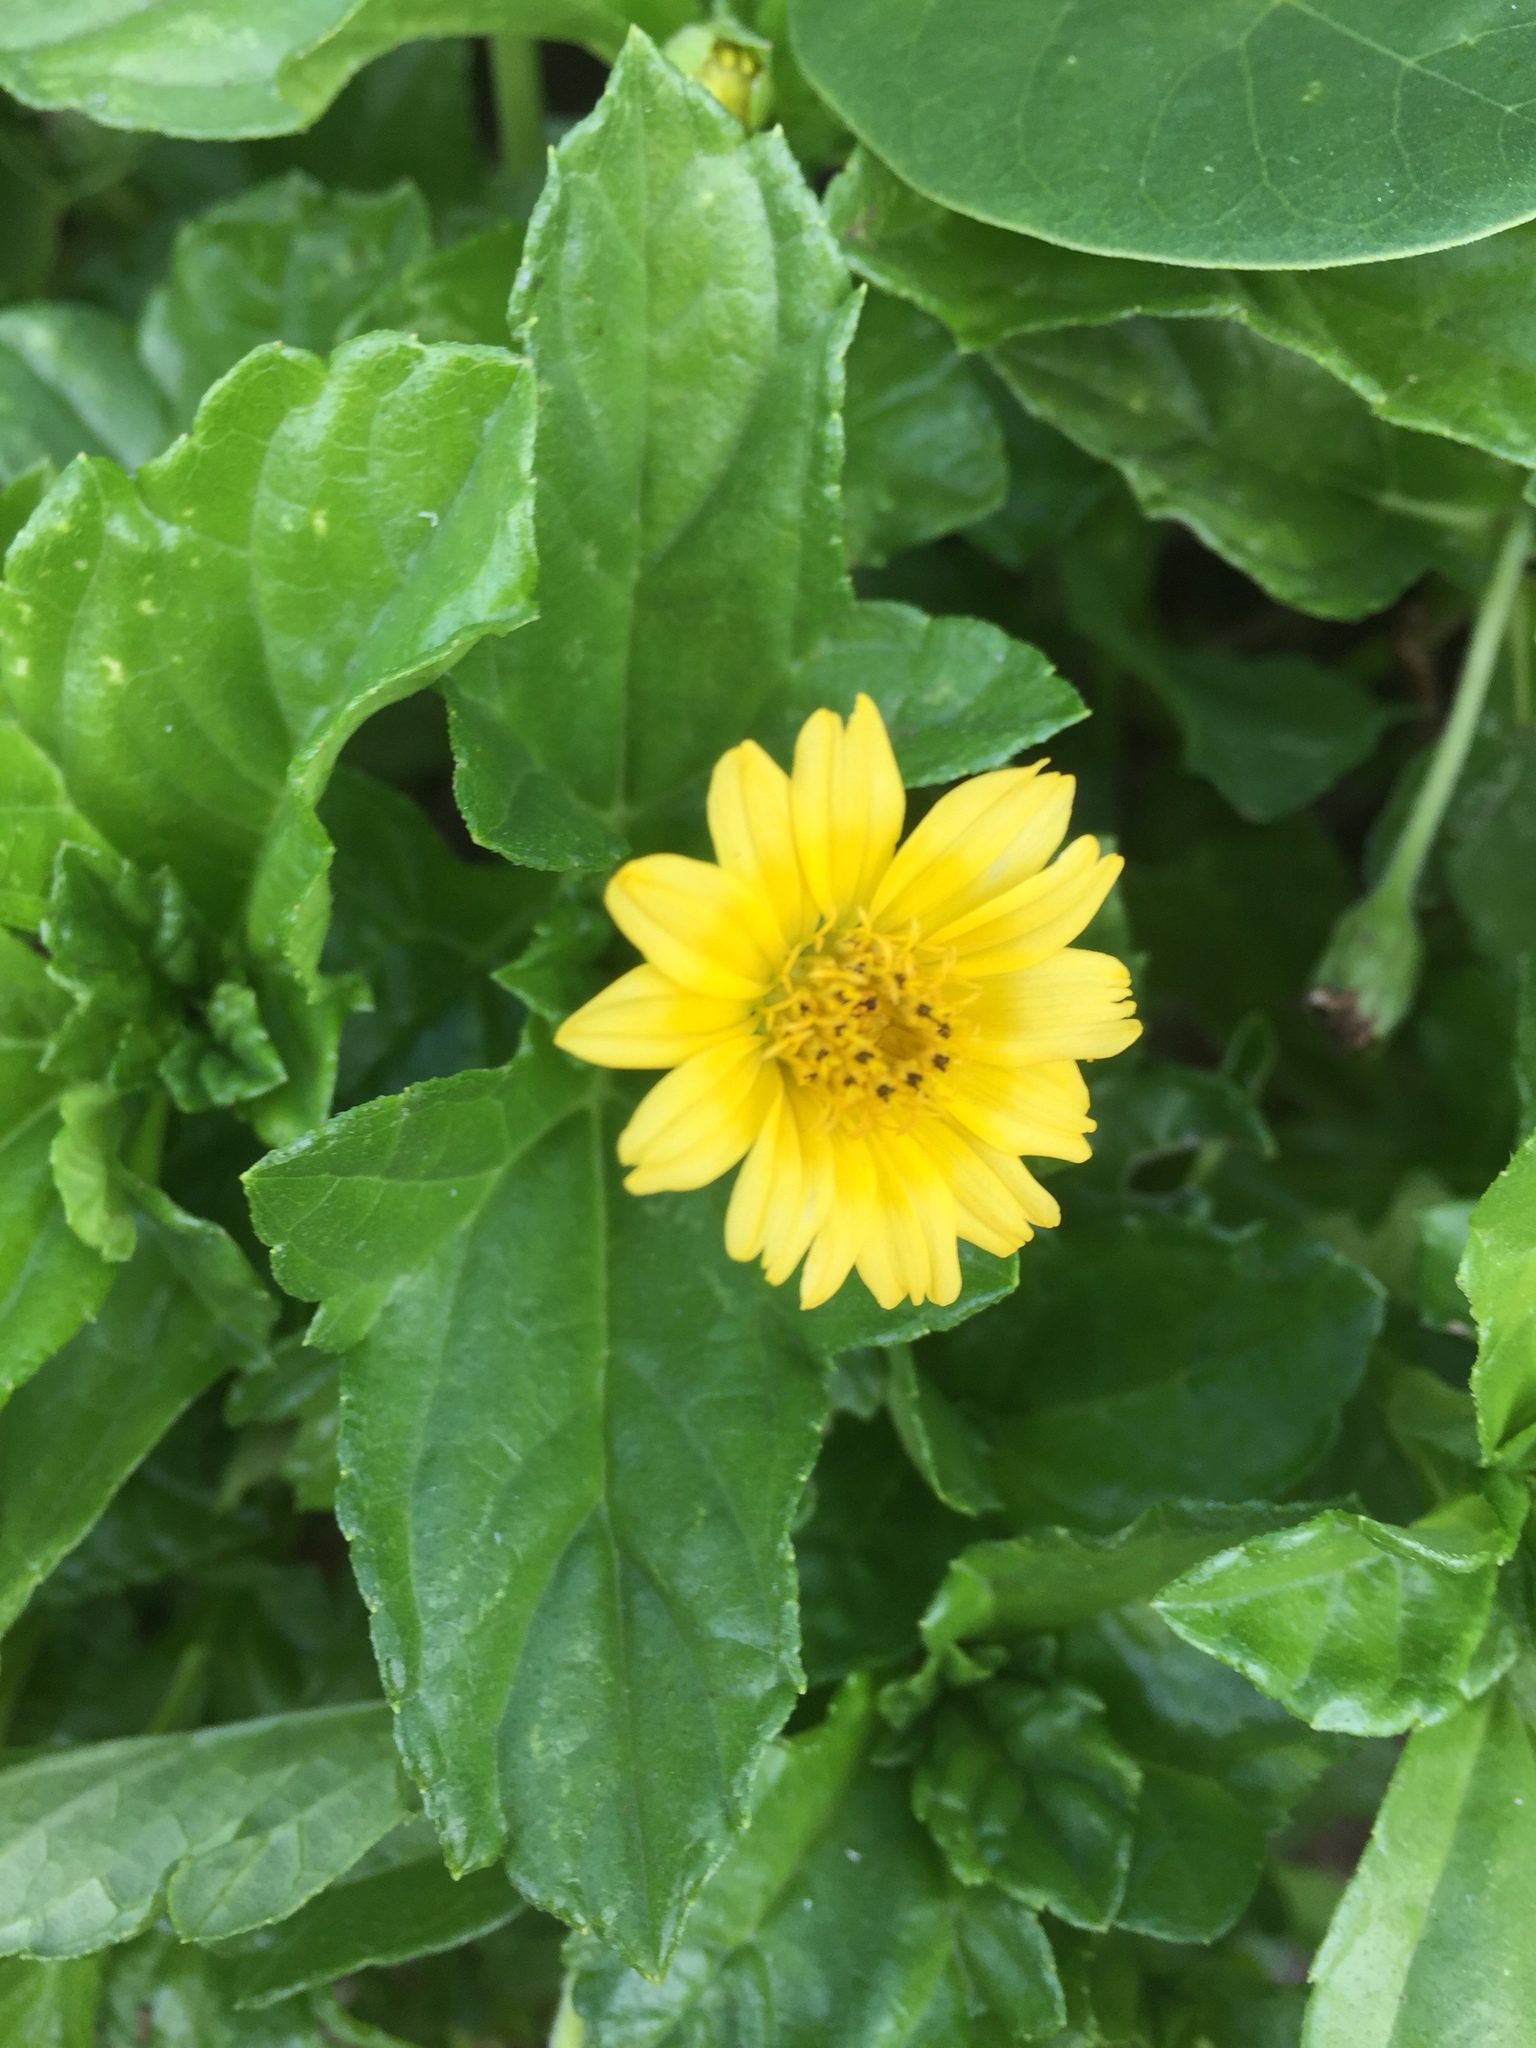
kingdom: Plantae
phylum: Tracheophyta
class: Magnoliopsida
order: Asterales
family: Asteraceae
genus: Sphagneticola
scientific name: Sphagneticola trilobata
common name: Bay biscayne creeping-oxeye
